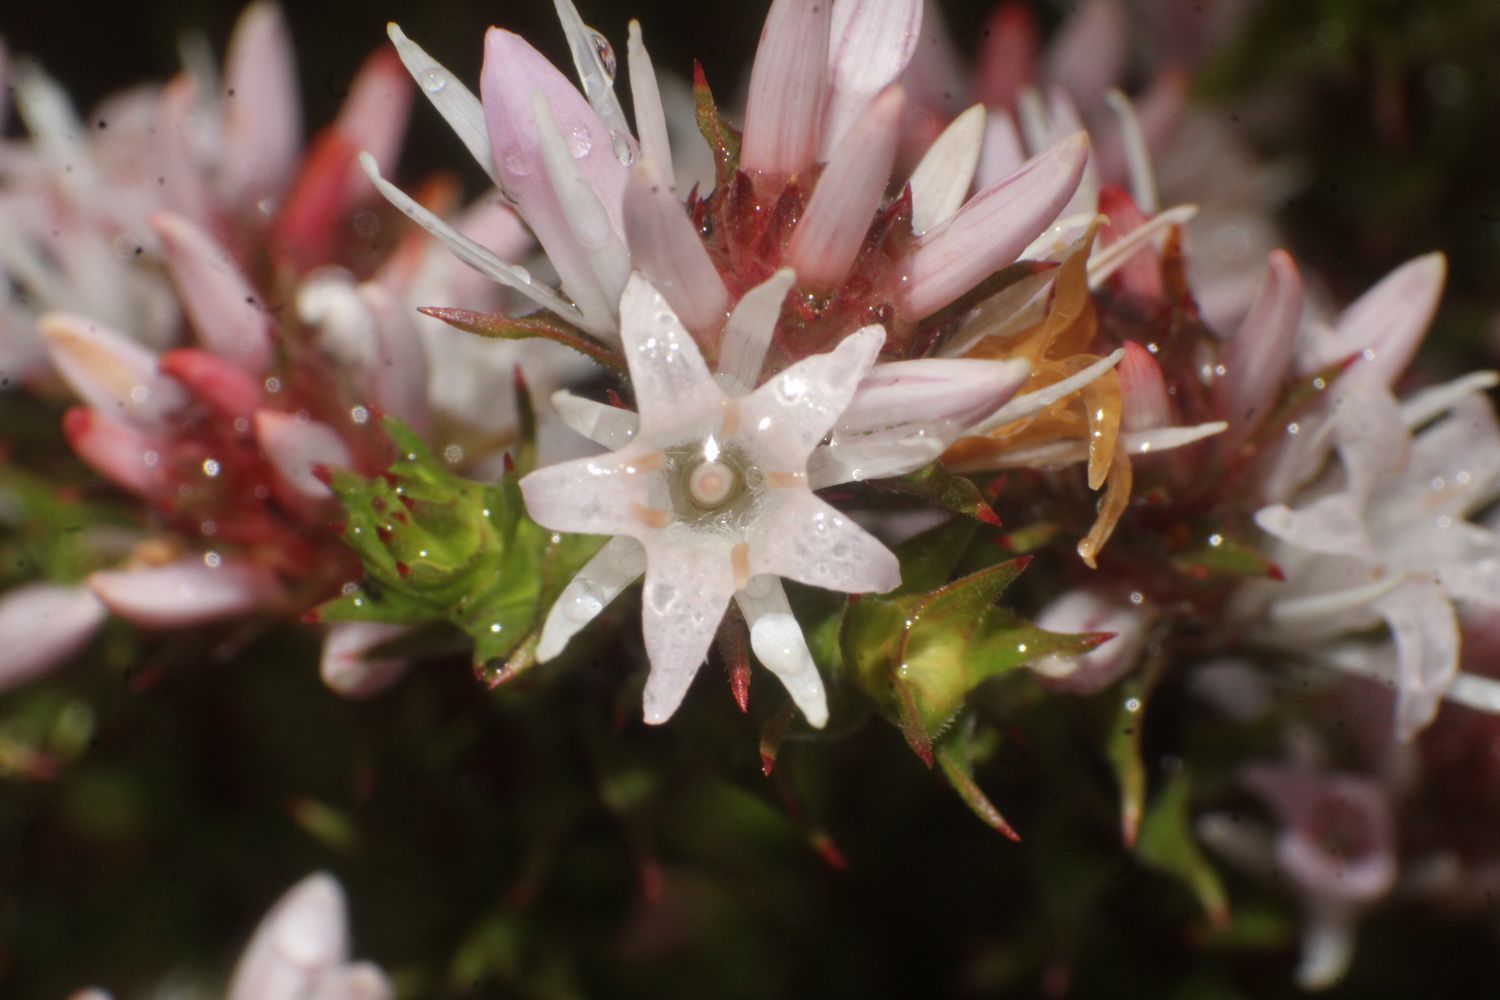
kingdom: Plantae
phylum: Tracheophyta
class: Magnoliopsida
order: Ericales
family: Ericaceae
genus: Andersonia
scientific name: Andersonia simplex
